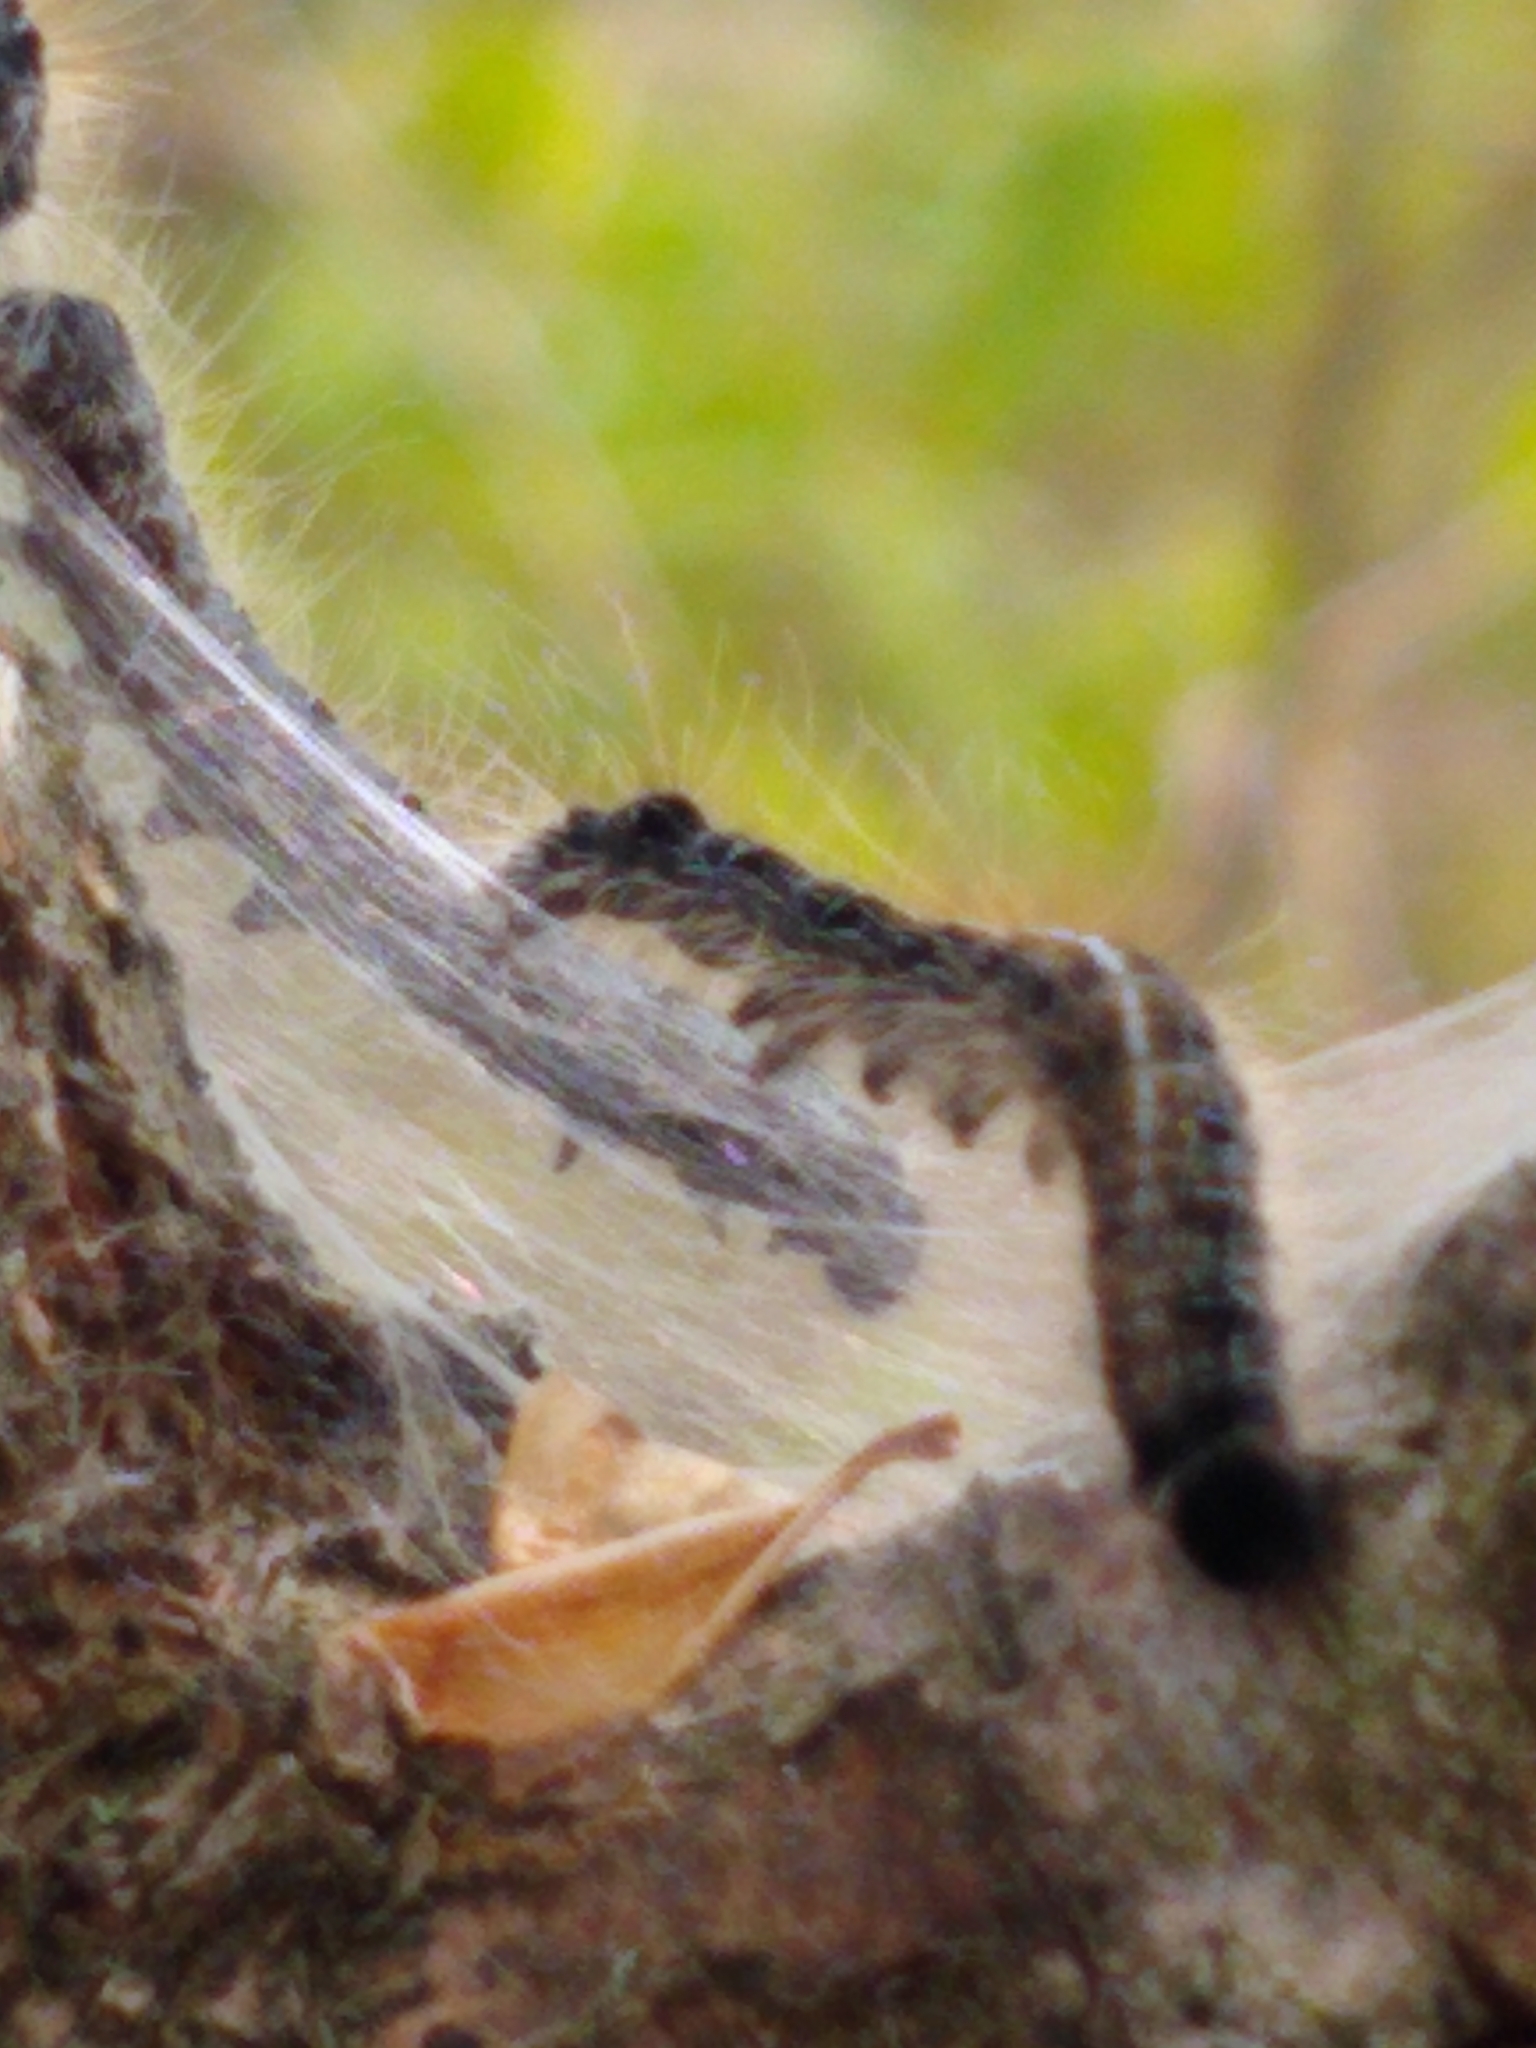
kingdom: Animalia
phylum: Arthropoda
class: Insecta
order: Lepidoptera
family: Lasiocampidae
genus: Malacosoma
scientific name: Malacosoma americana
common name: Eastern tent caterpillar moth
